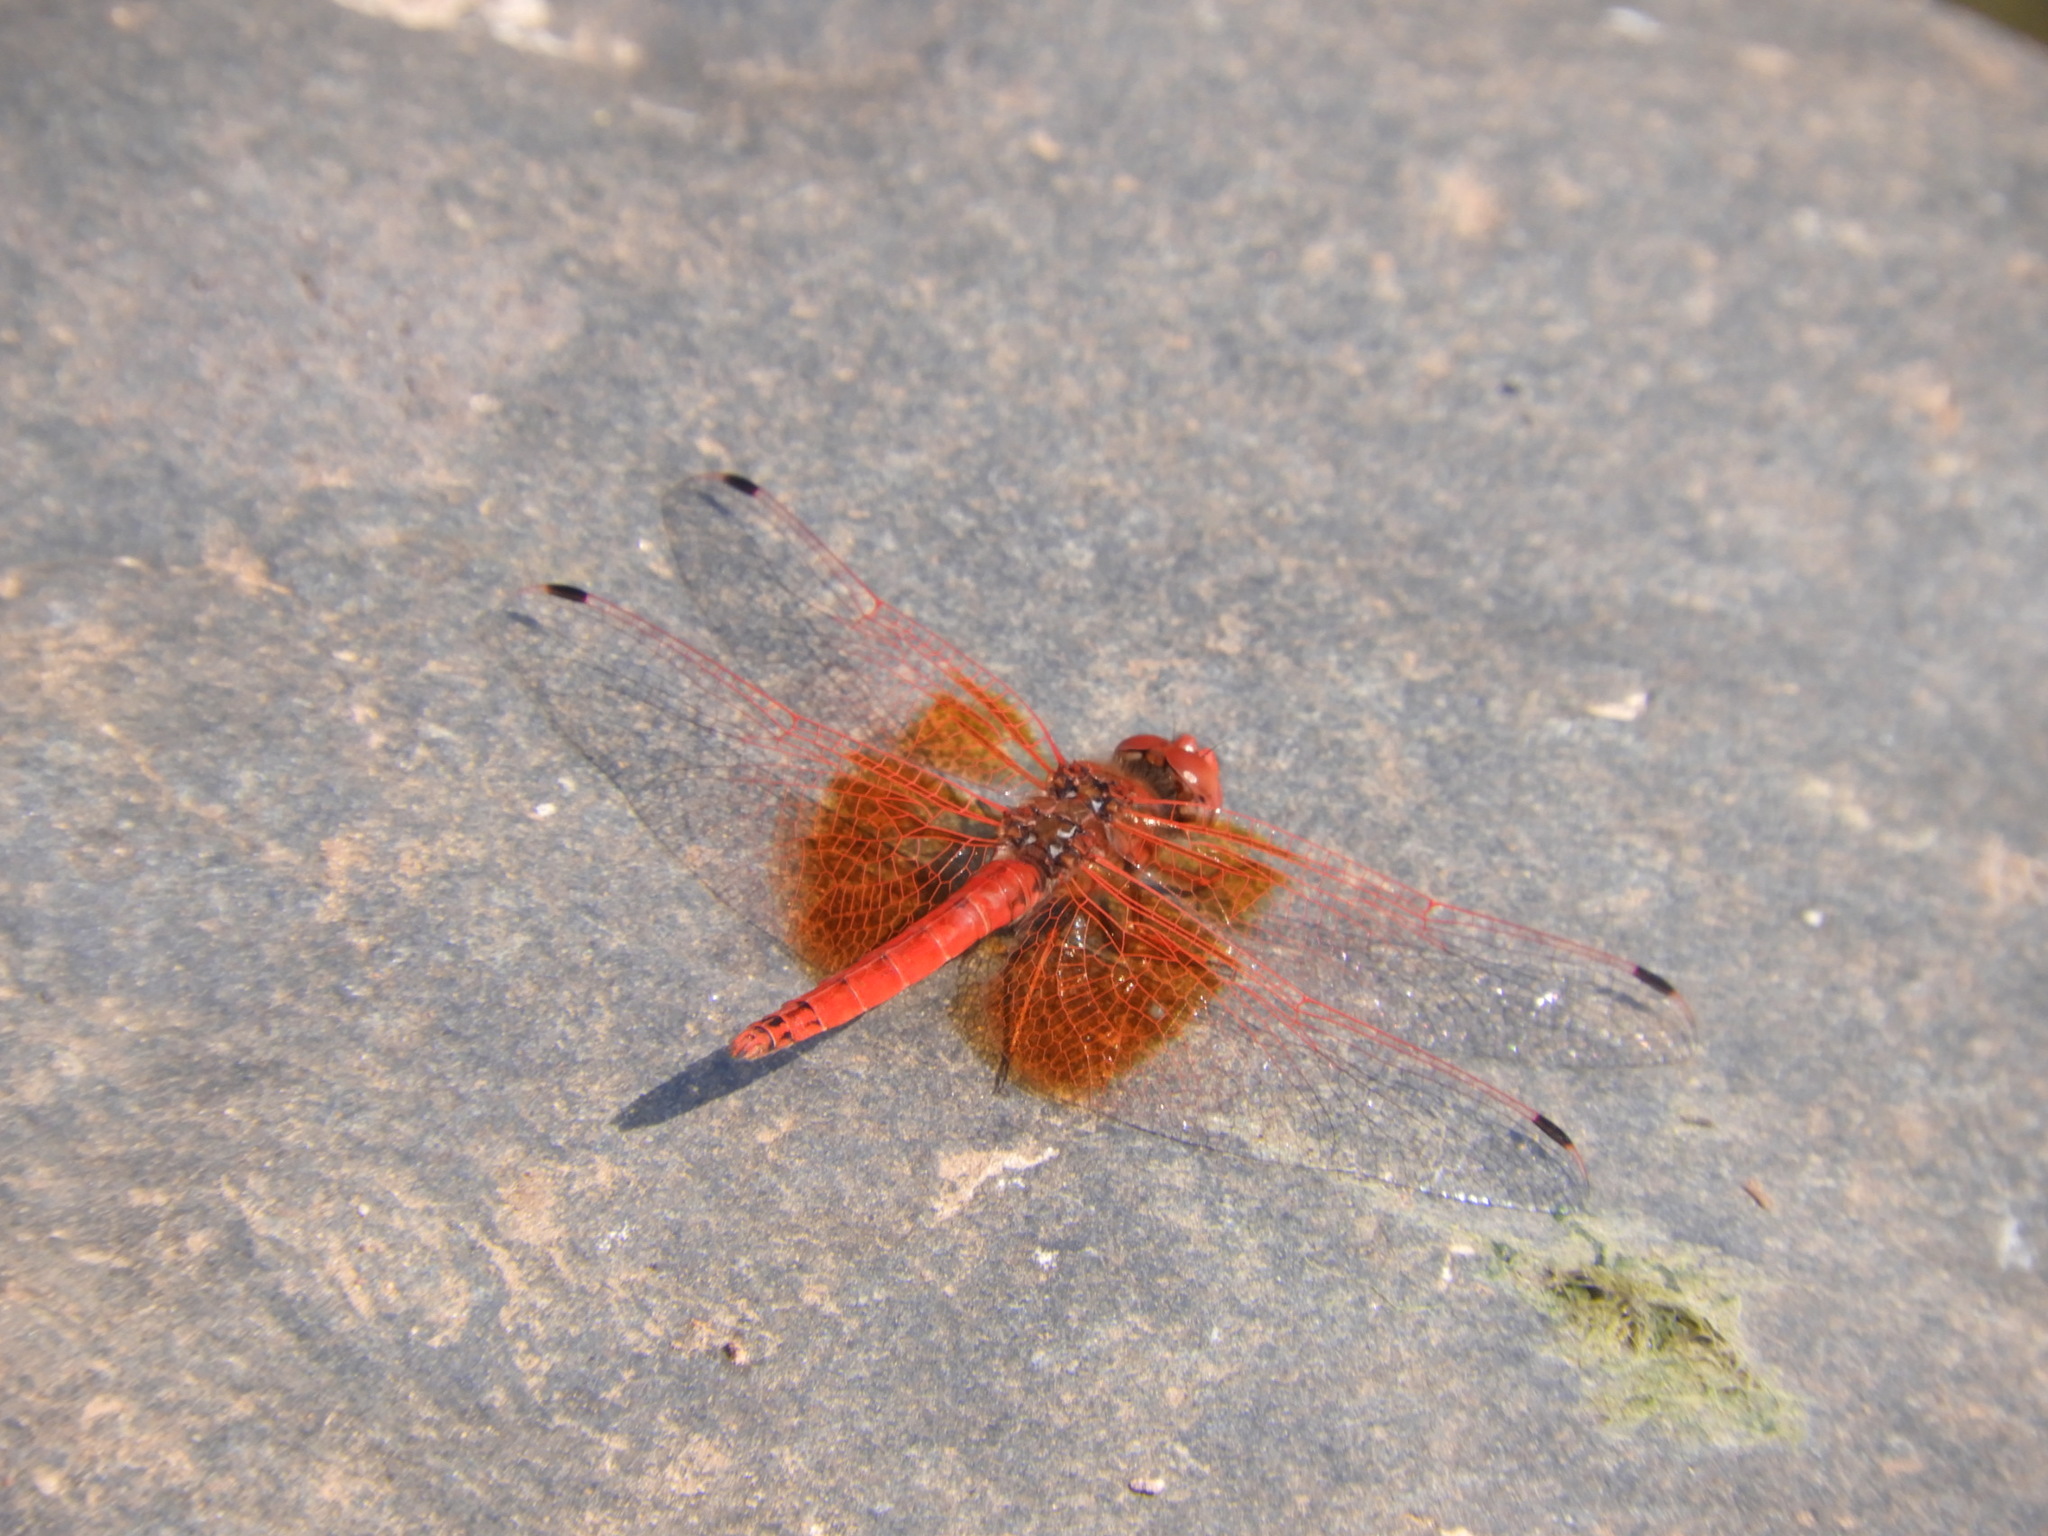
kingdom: Animalia
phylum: Arthropoda
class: Insecta
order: Odonata
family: Libellulidae
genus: Trithemis
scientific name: Trithemis kirbyi
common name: Kirby's dropwing
